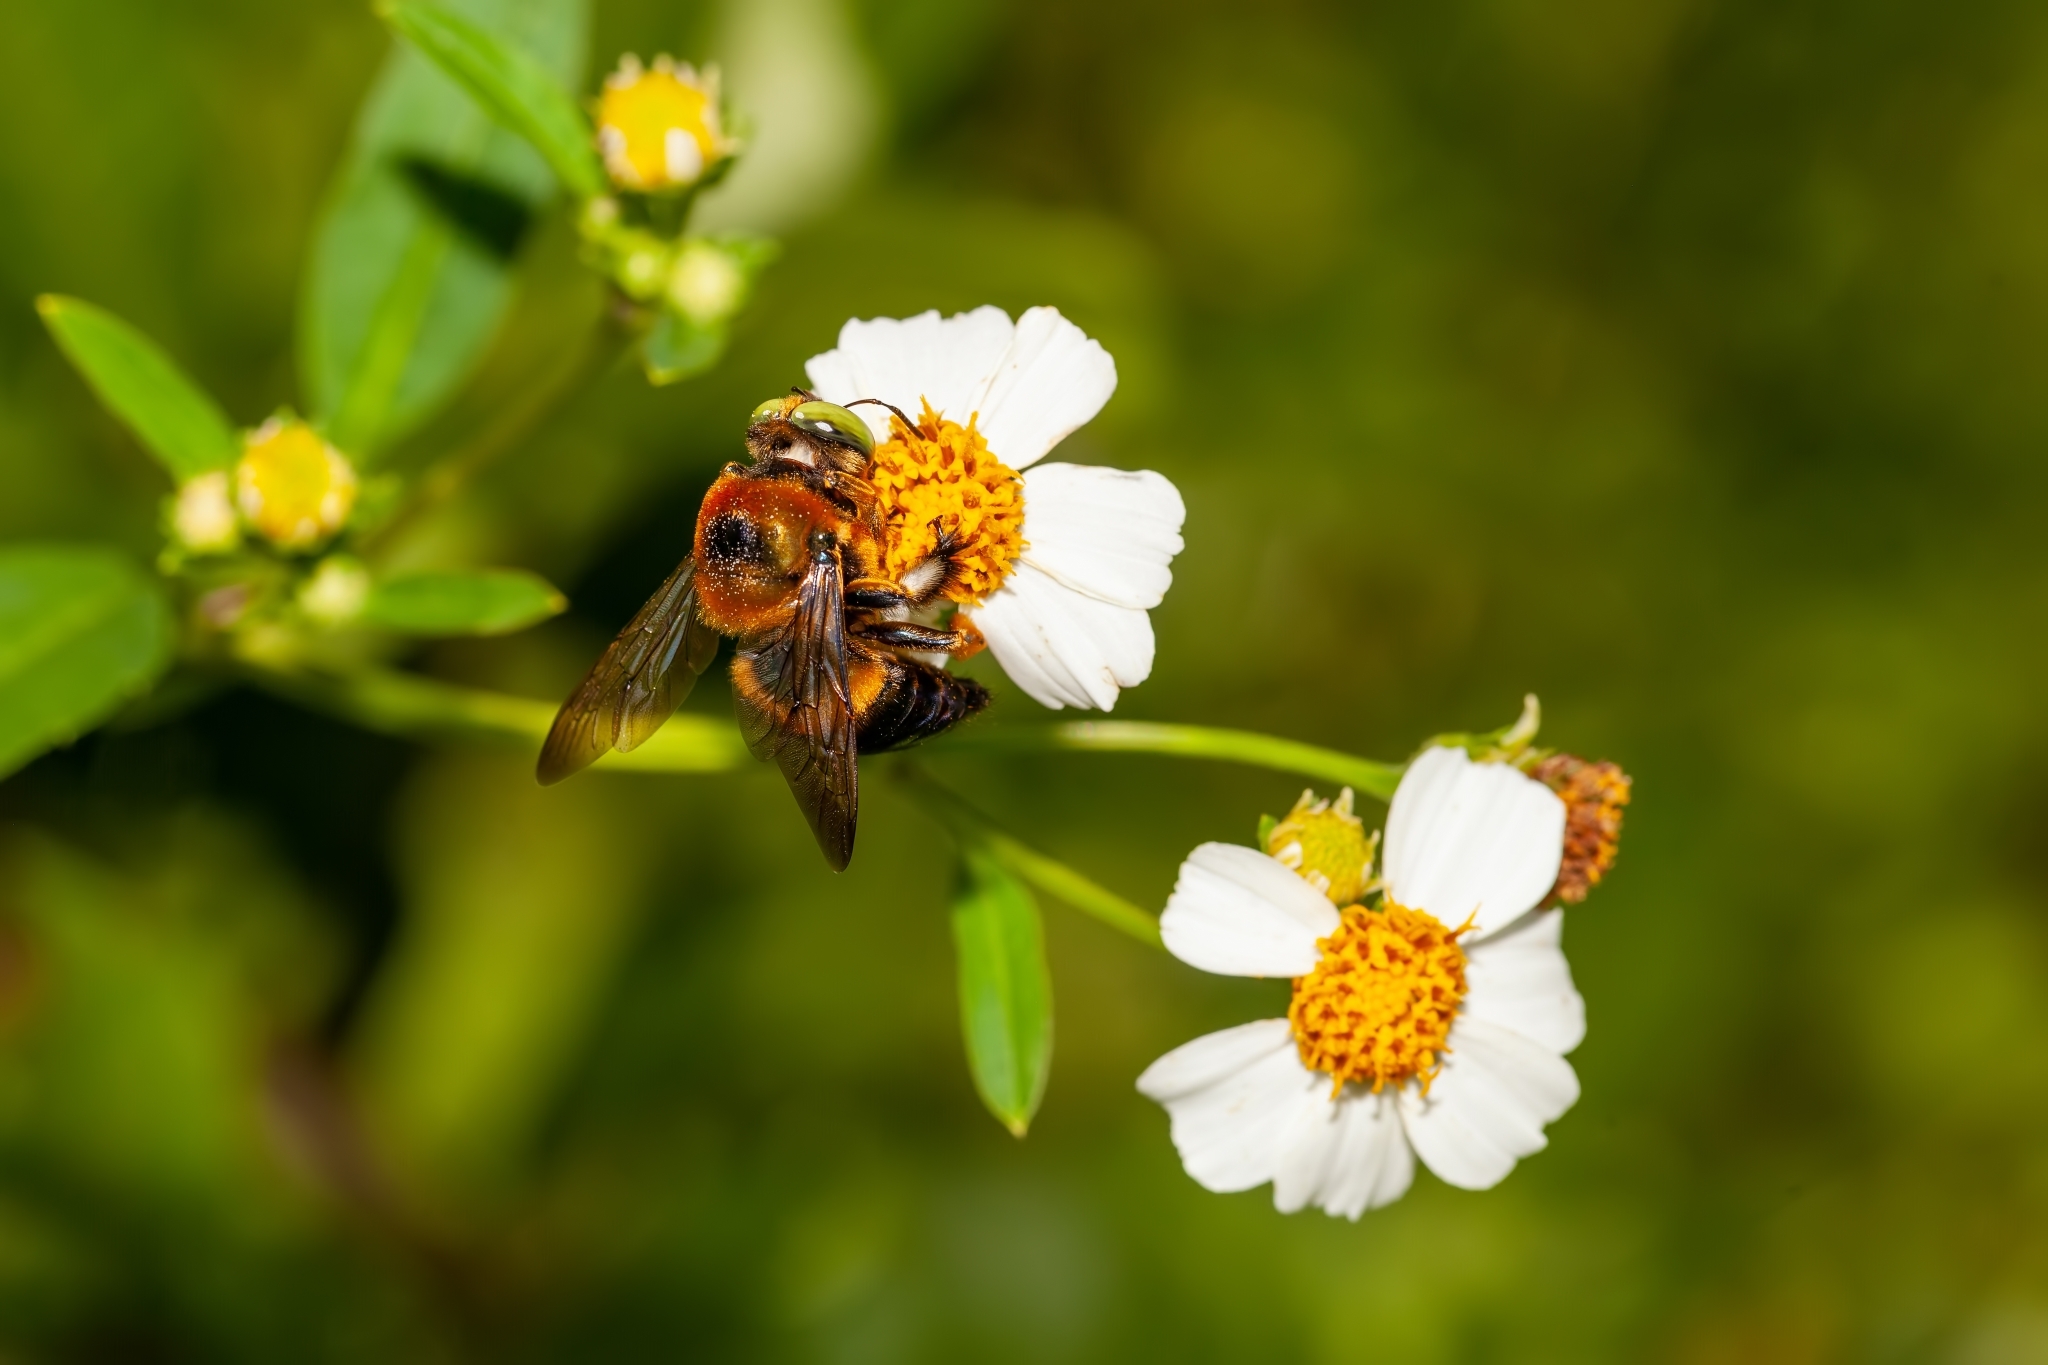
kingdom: Animalia
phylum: Arthropoda
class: Insecta
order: Hymenoptera
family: Apidae
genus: Xylocopa
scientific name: Xylocopa micans
